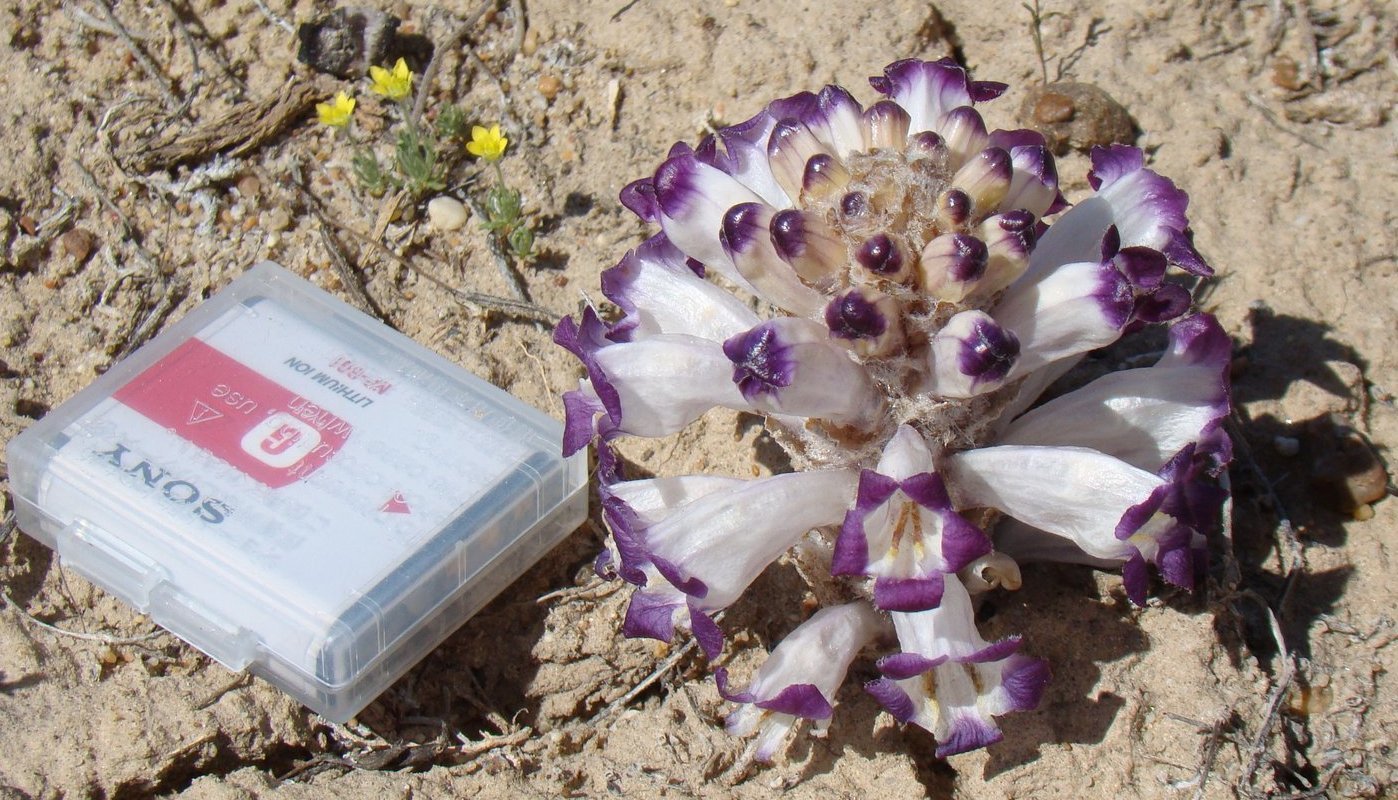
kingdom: Plantae
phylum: Tracheophyta
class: Magnoliopsida
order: Lamiales
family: Orobanchaceae
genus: Cistanche
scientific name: Cistanche salsa
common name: Broomrape
